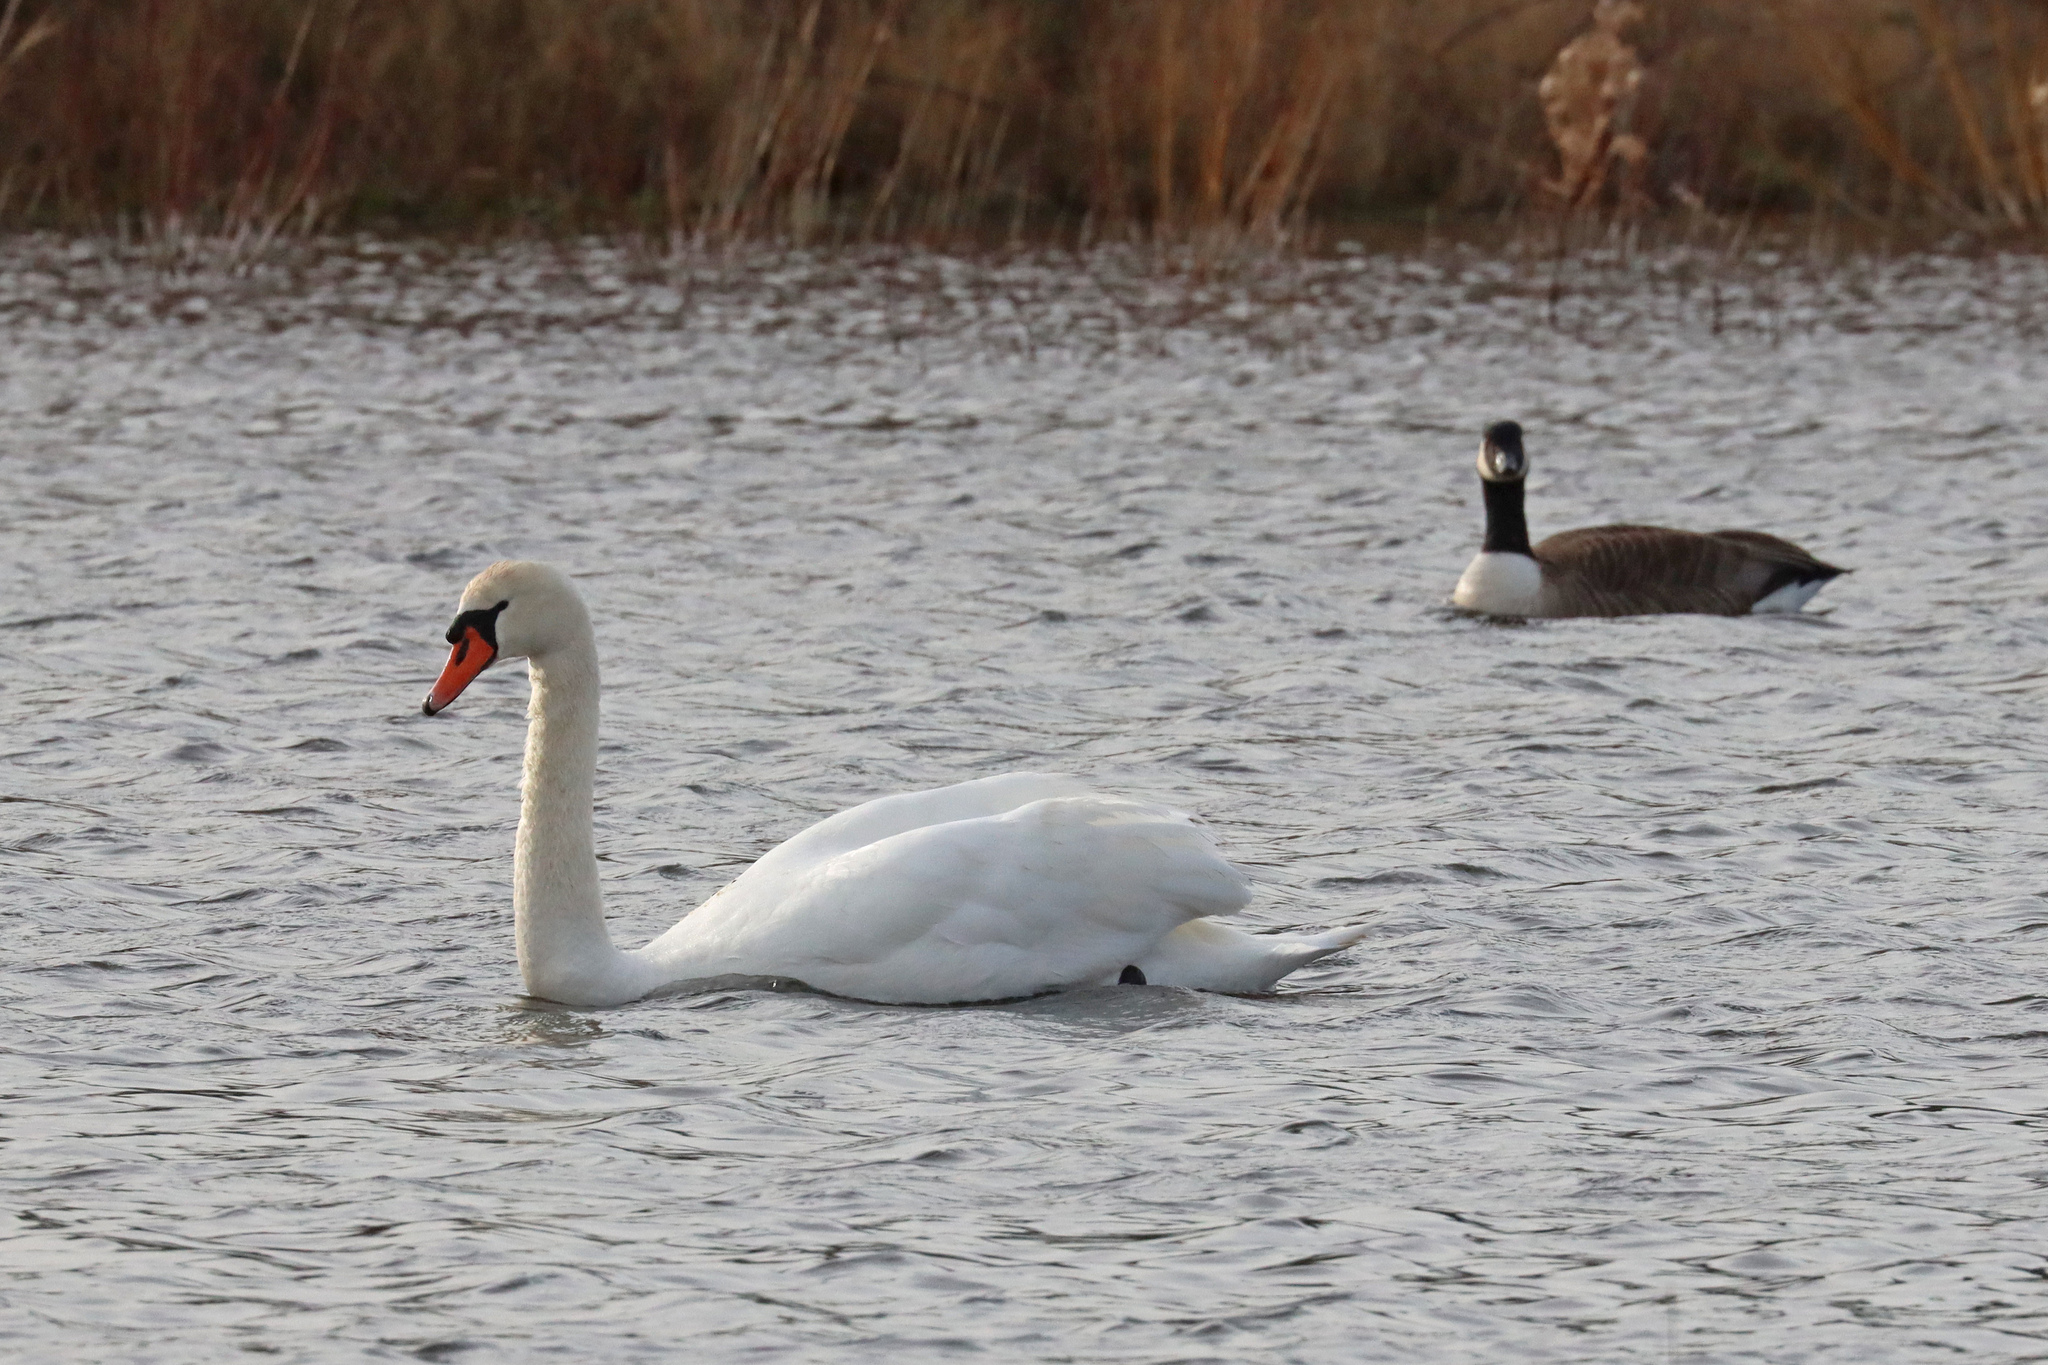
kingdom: Animalia
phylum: Chordata
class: Aves
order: Anseriformes
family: Anatidae
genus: Cygnus
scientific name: Cygnus olor
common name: Mute swan
